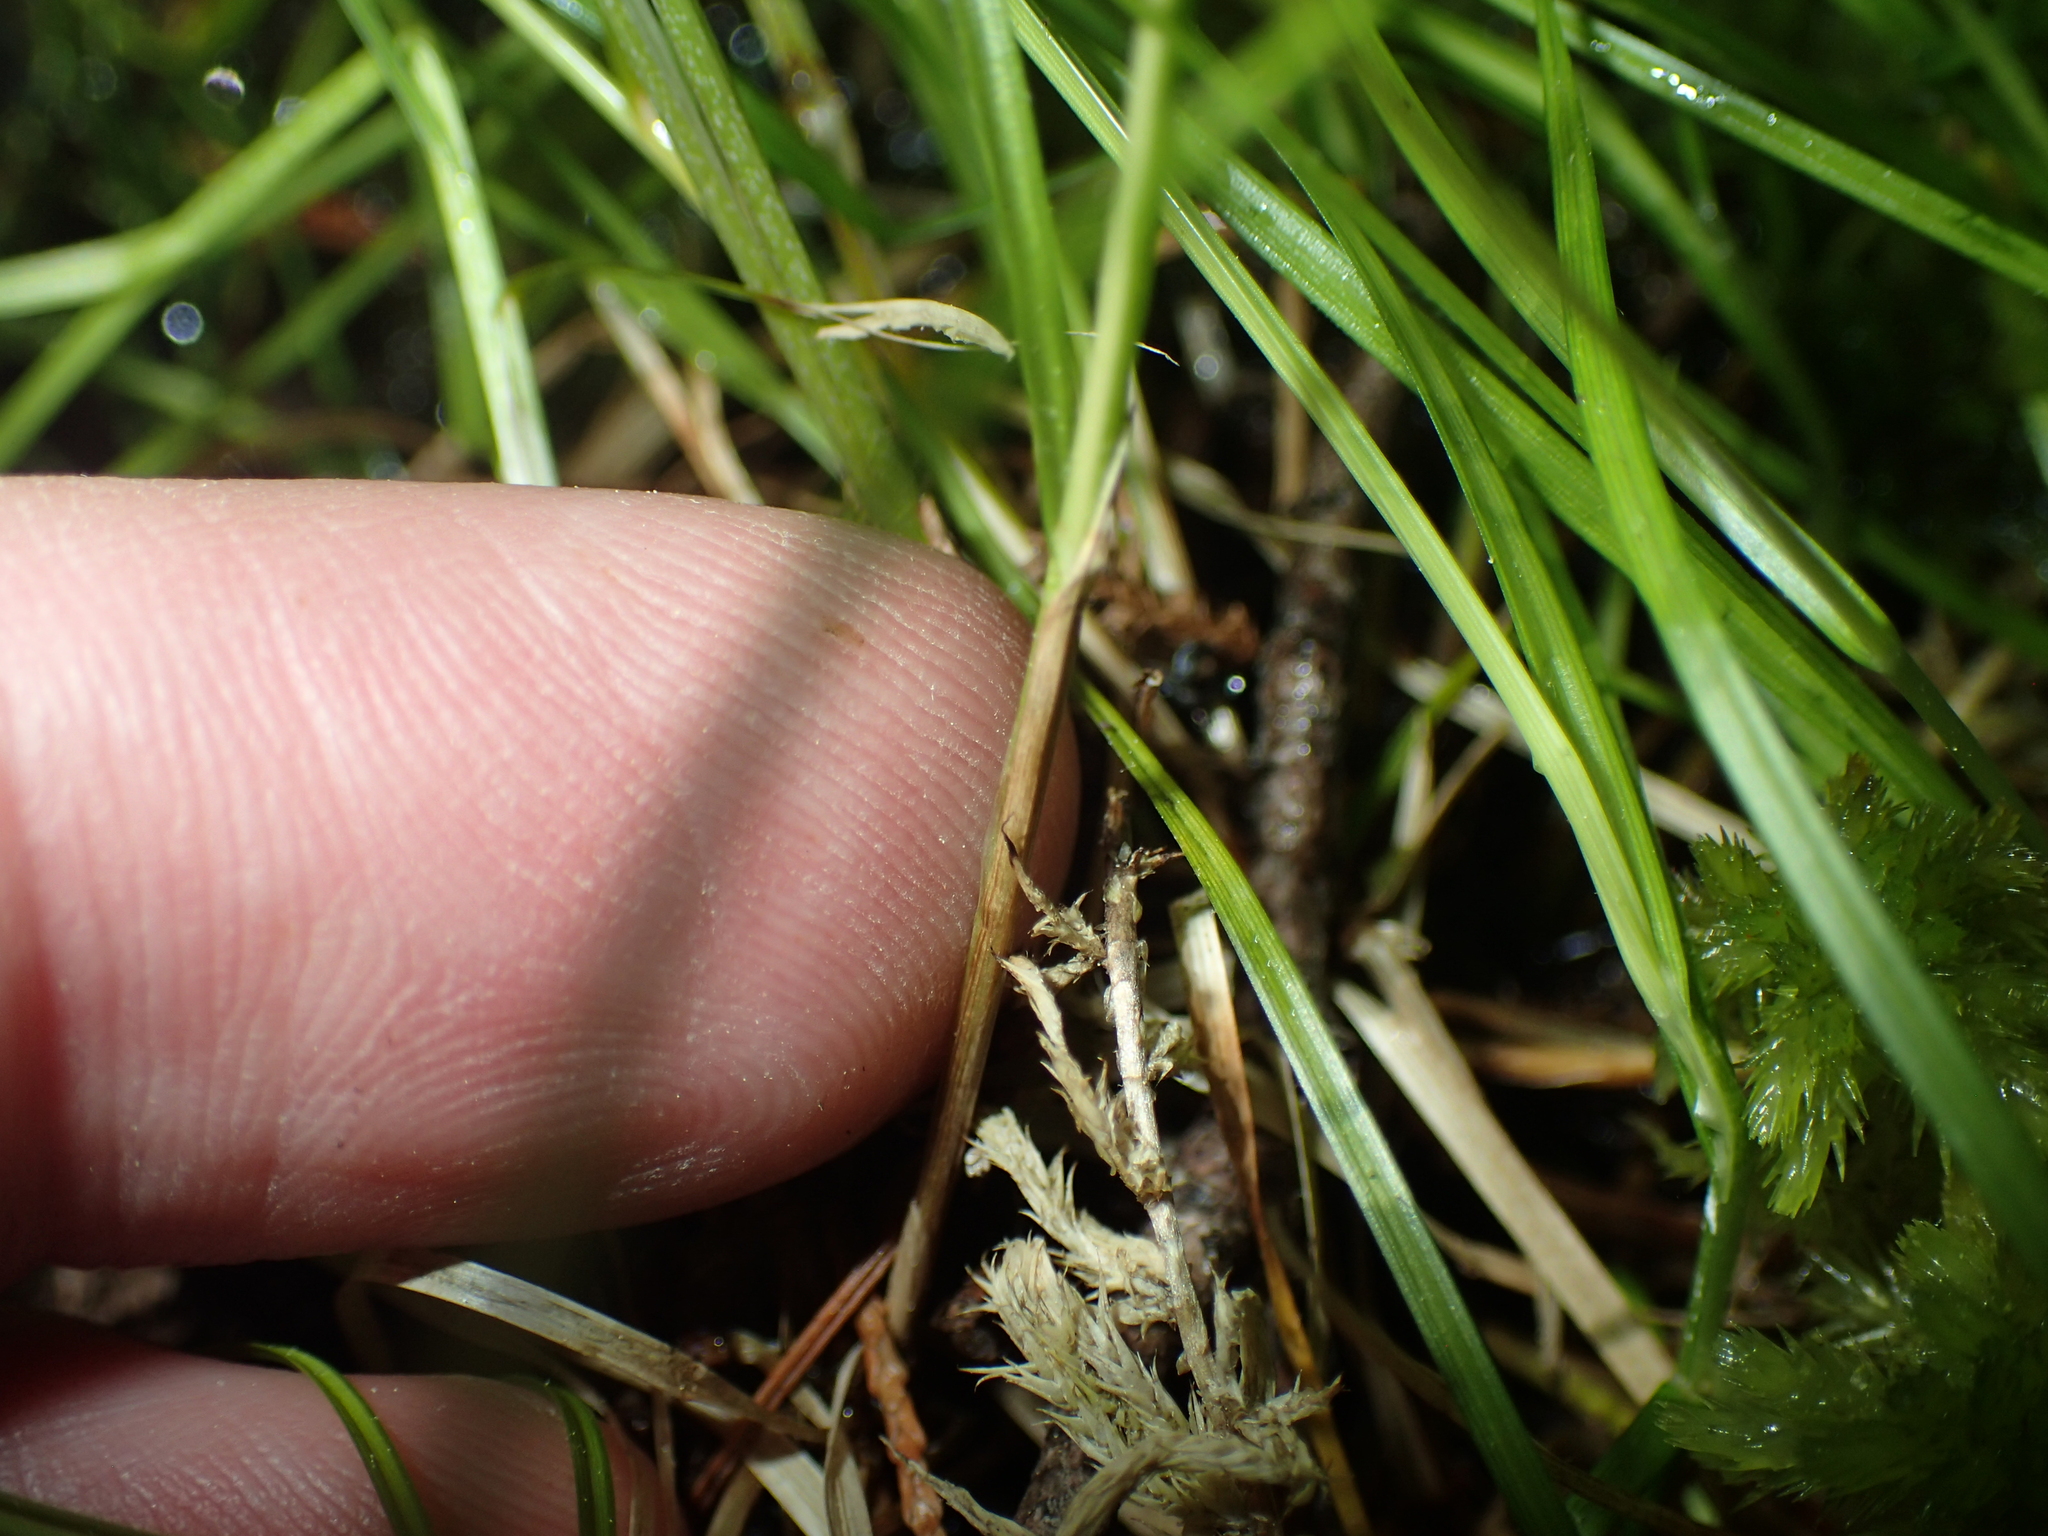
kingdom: Plantae
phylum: Tracheophyta
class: Liliopsida
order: Poales
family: Cyperaceae
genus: Carex
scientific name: Carex trisperma
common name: Three-seeded sedge
